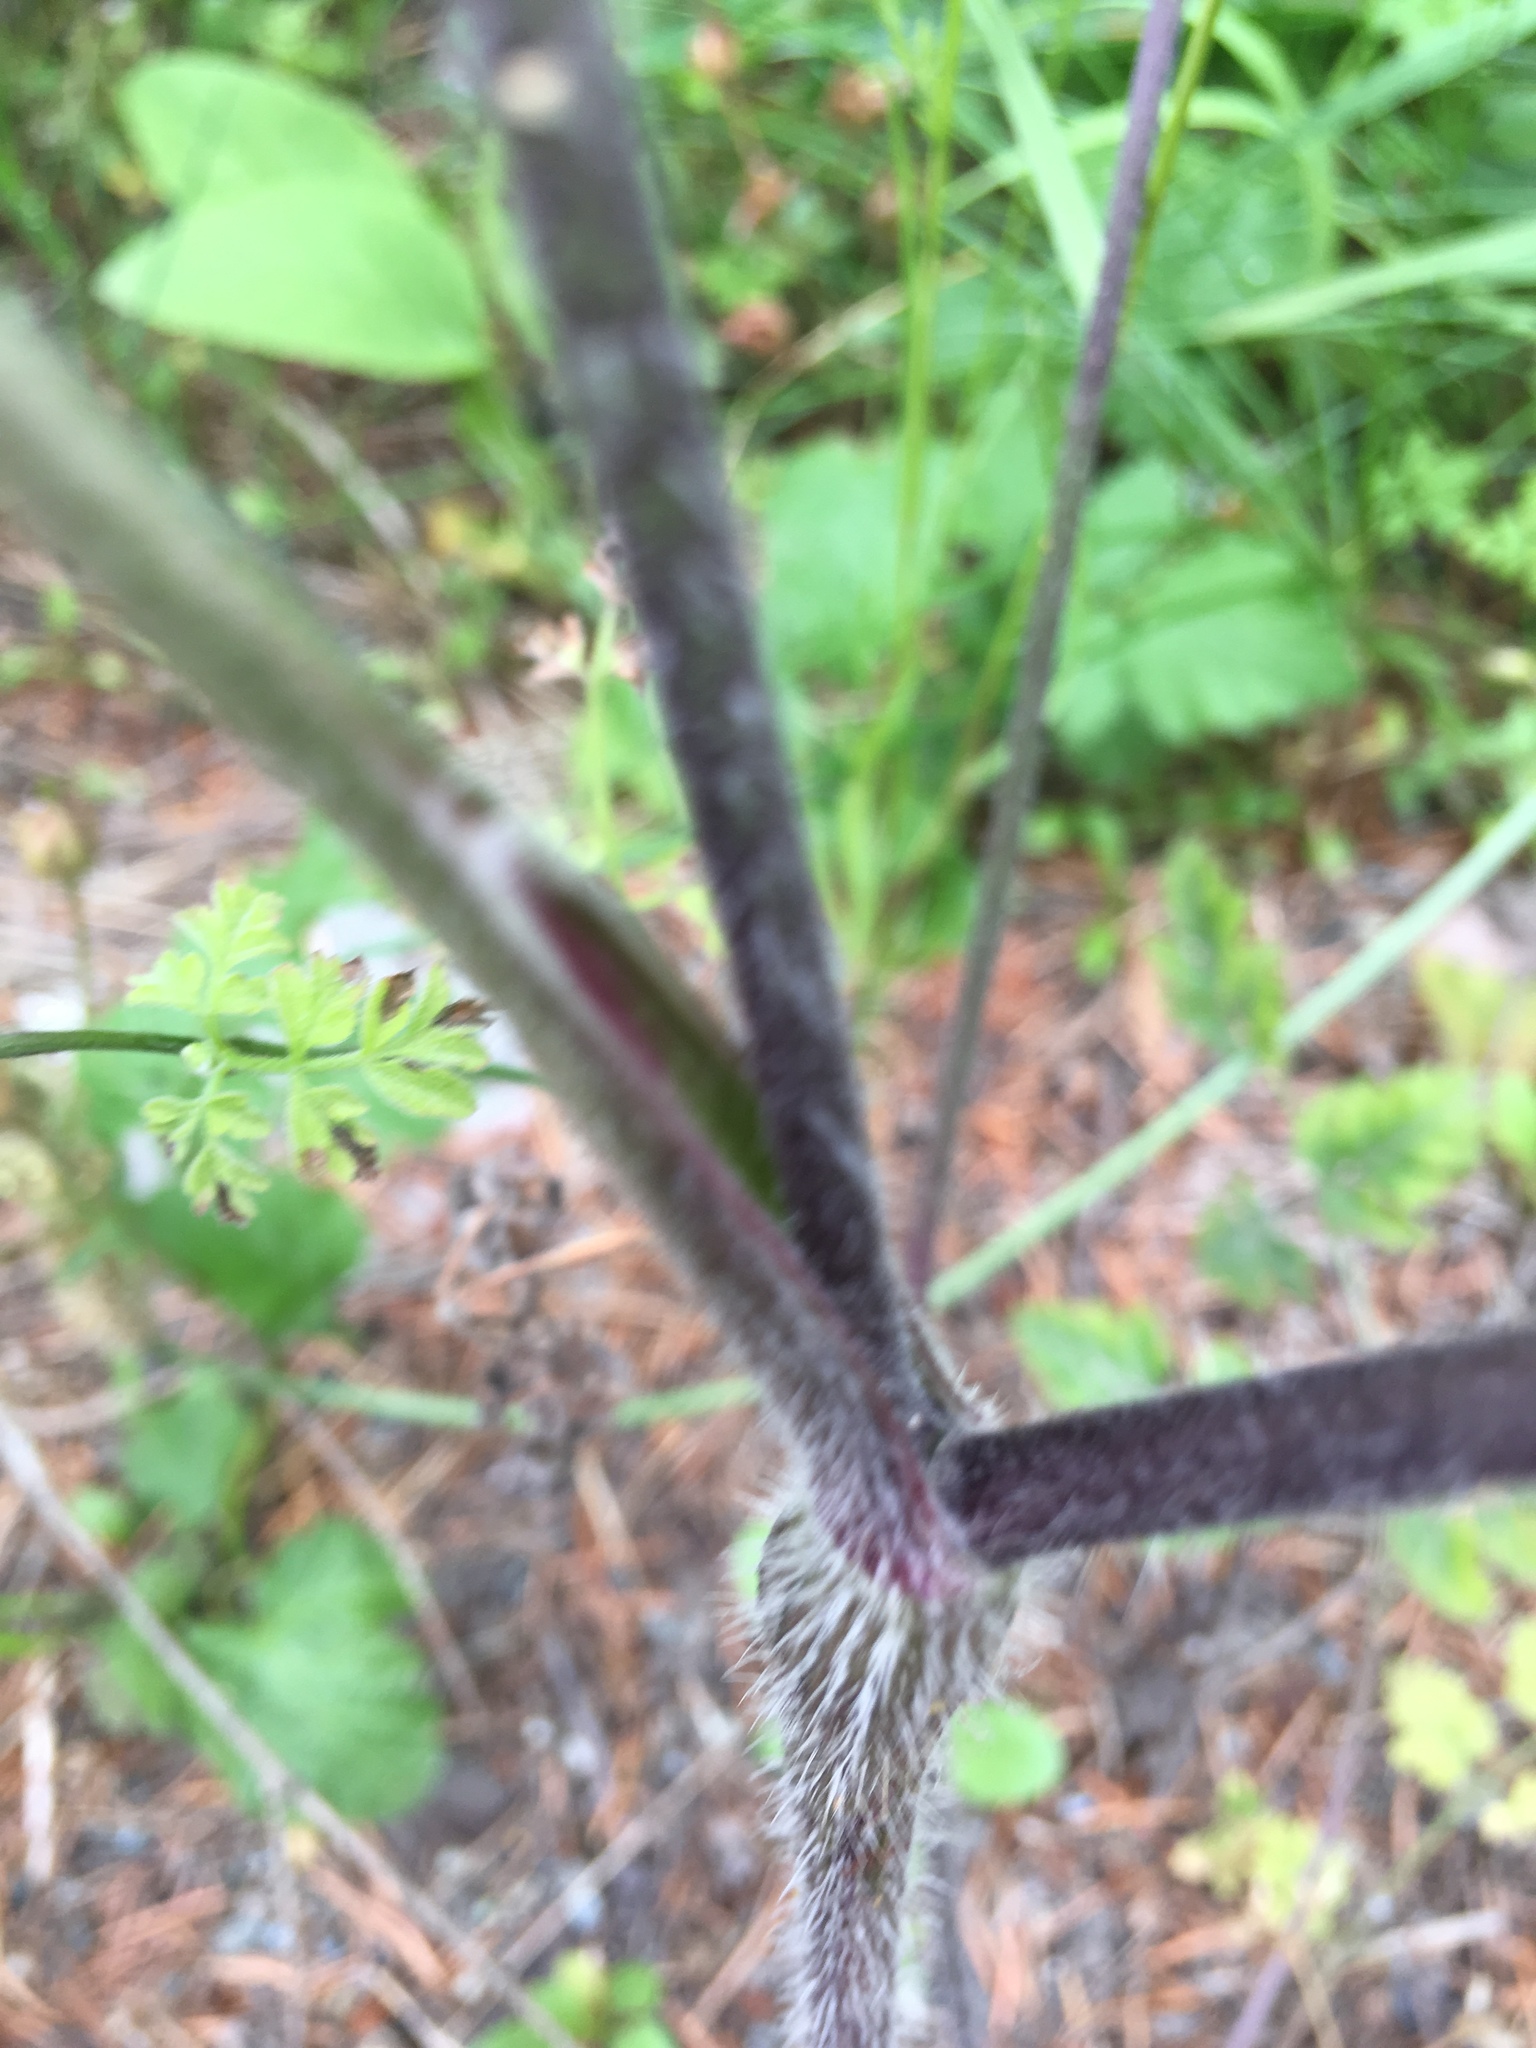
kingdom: Plantae
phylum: Tracheophyta
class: Magnoliopsida
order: Apiales
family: Apiaceae
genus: Chaerophyllum
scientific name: Chaerophyllum temulum
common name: Rough chervil
